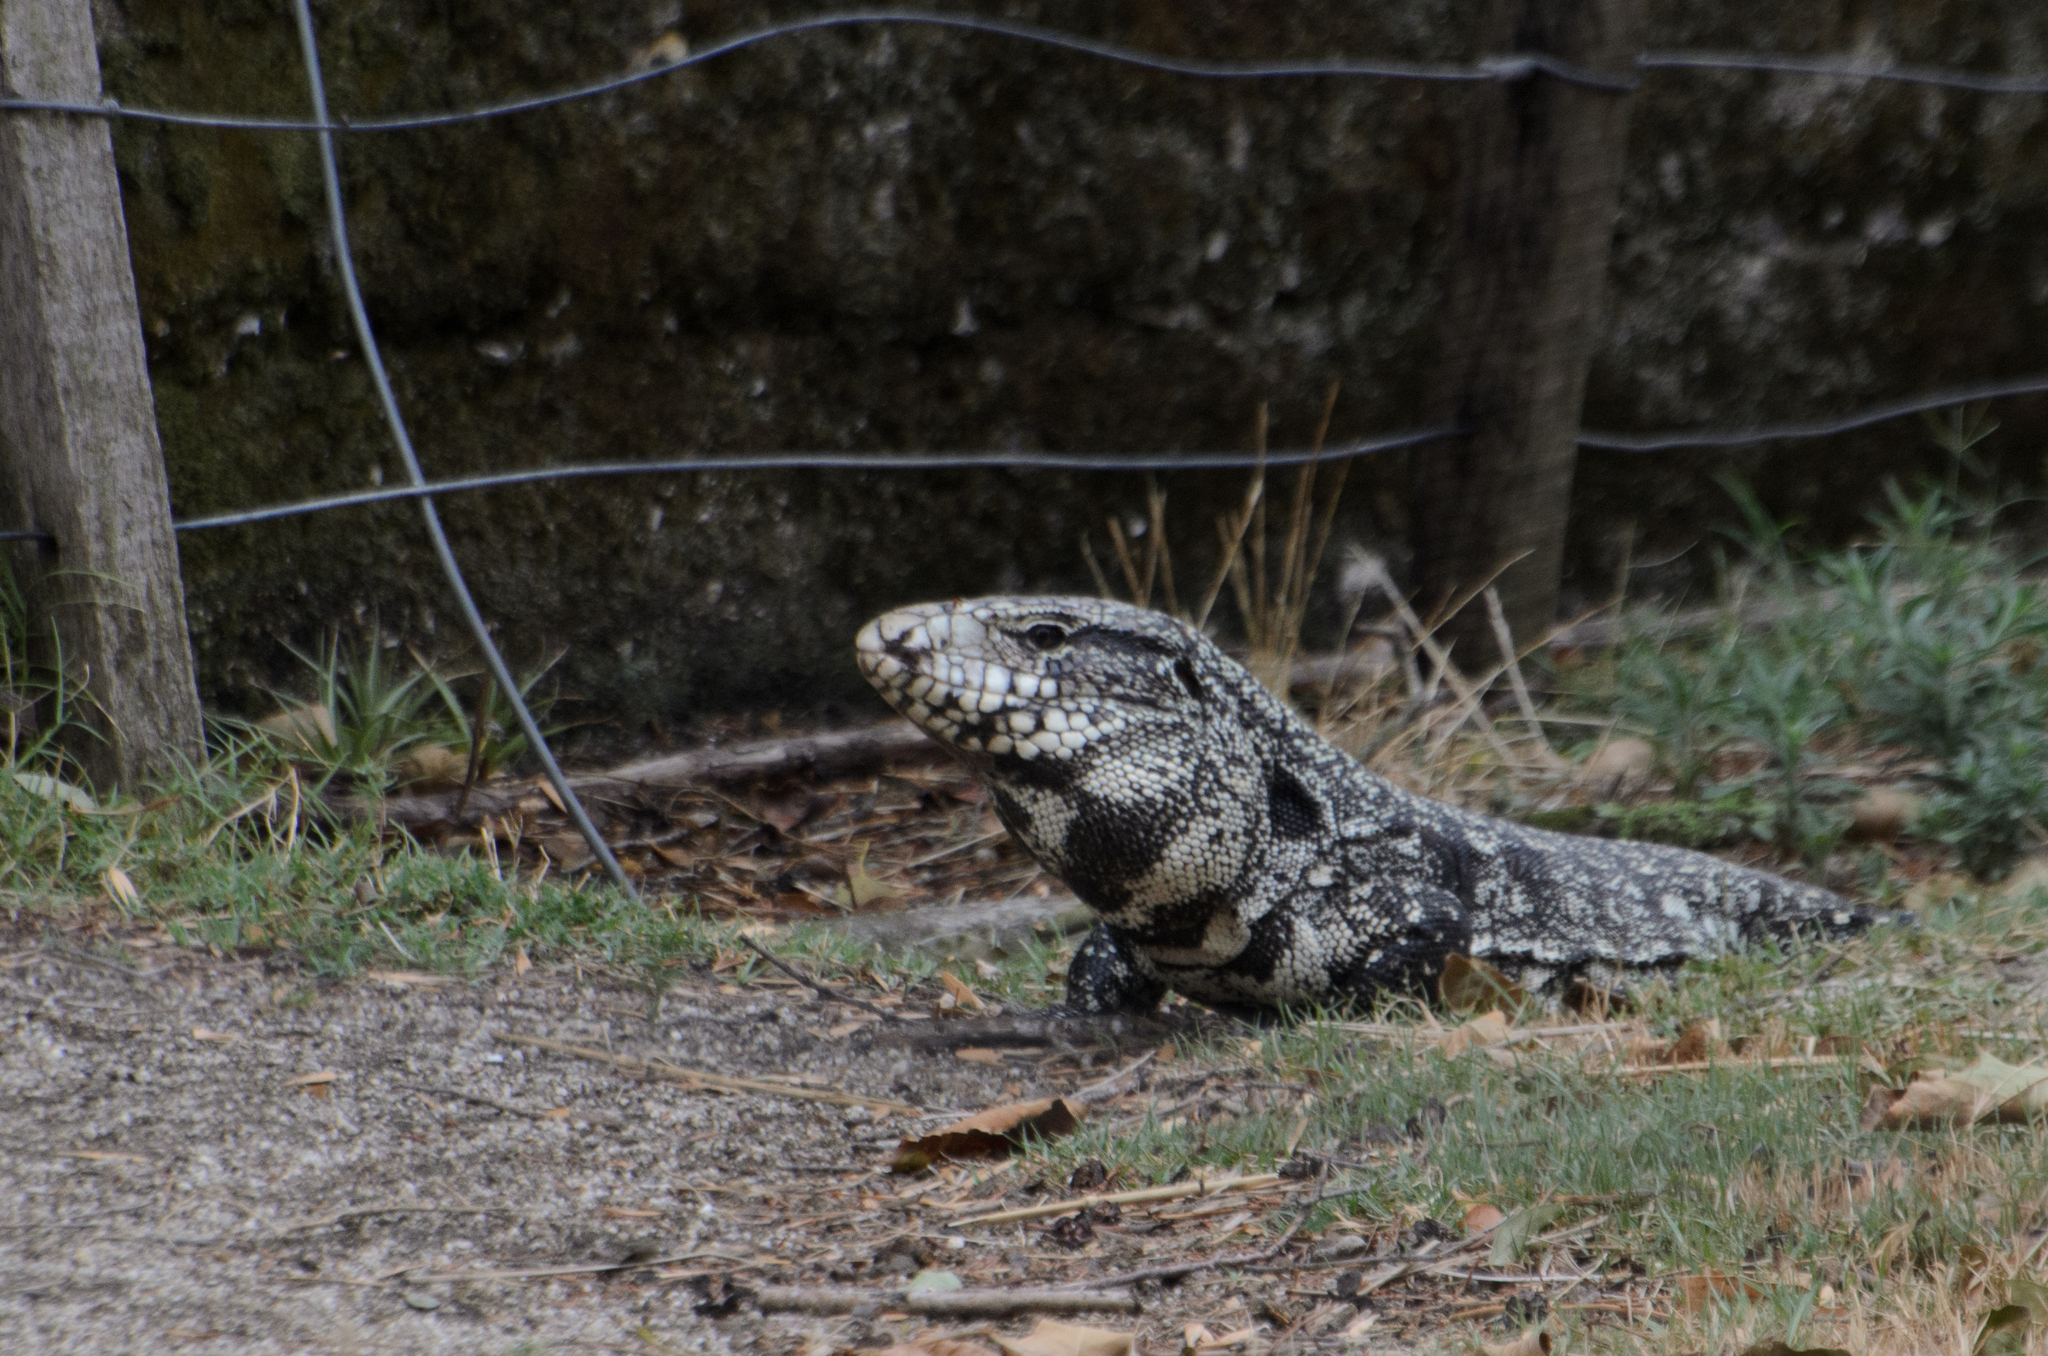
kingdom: Animalia
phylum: Chordata
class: Squamata
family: Teiidae
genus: Salvator
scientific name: Salvator merianae
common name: Argentine black and white tegu
